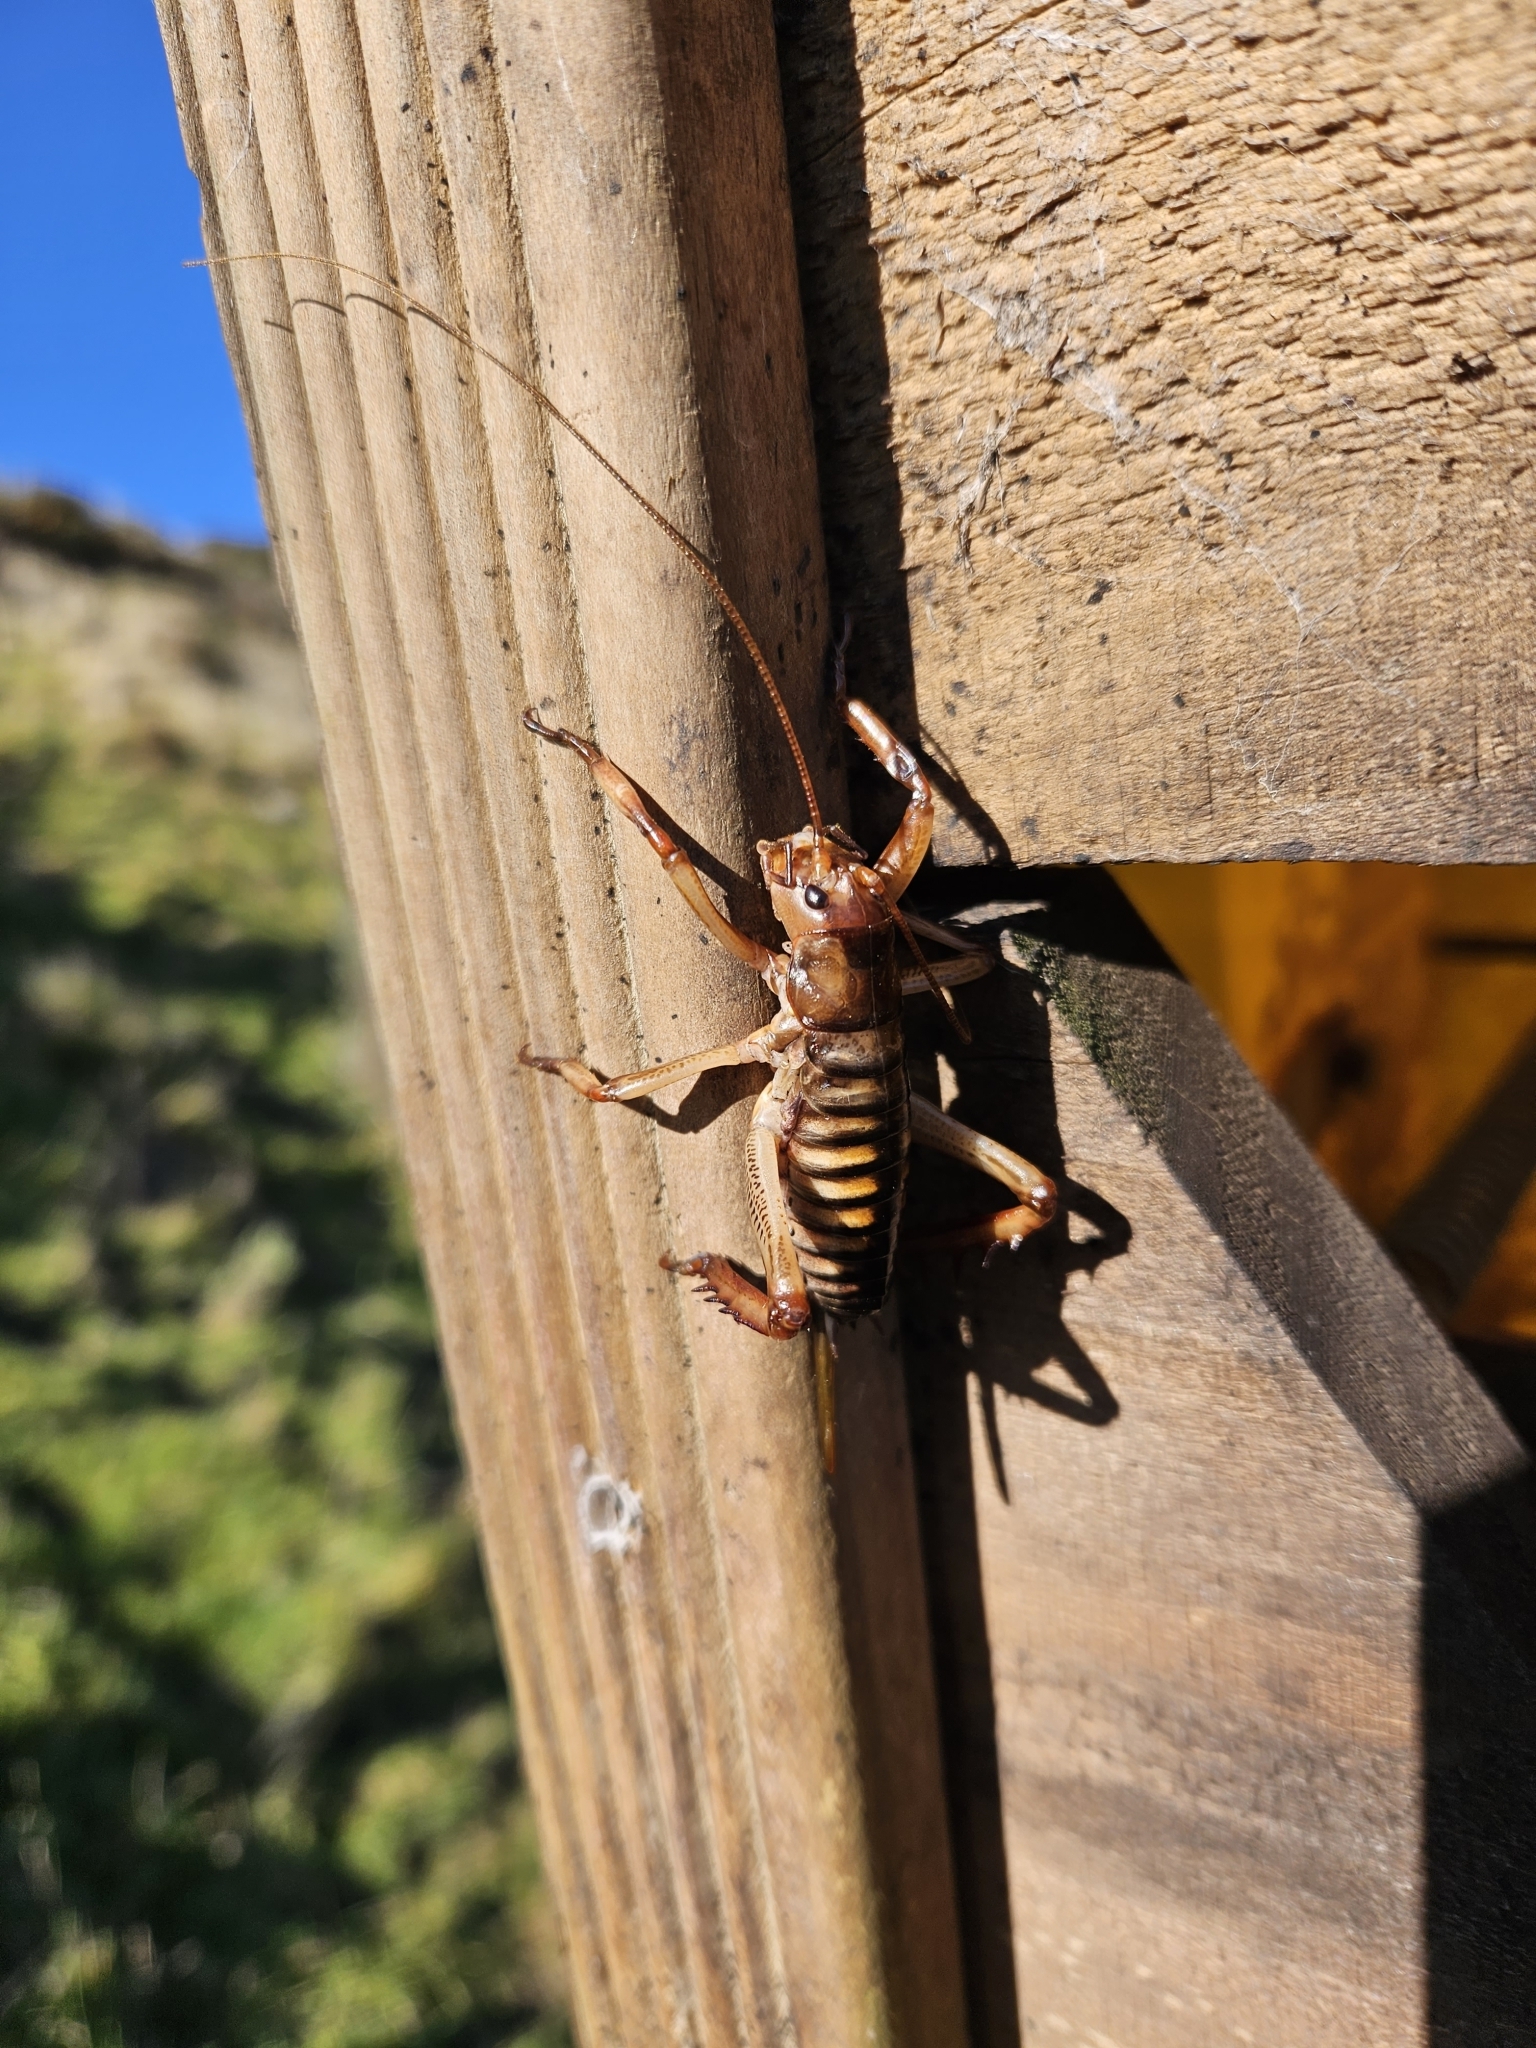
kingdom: Animalia
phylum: Arthropoda
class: Insecta
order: Orthoptera
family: Anostostomatidae
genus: Hemideina
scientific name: Hemideina crassidens
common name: Wellington tree weta
